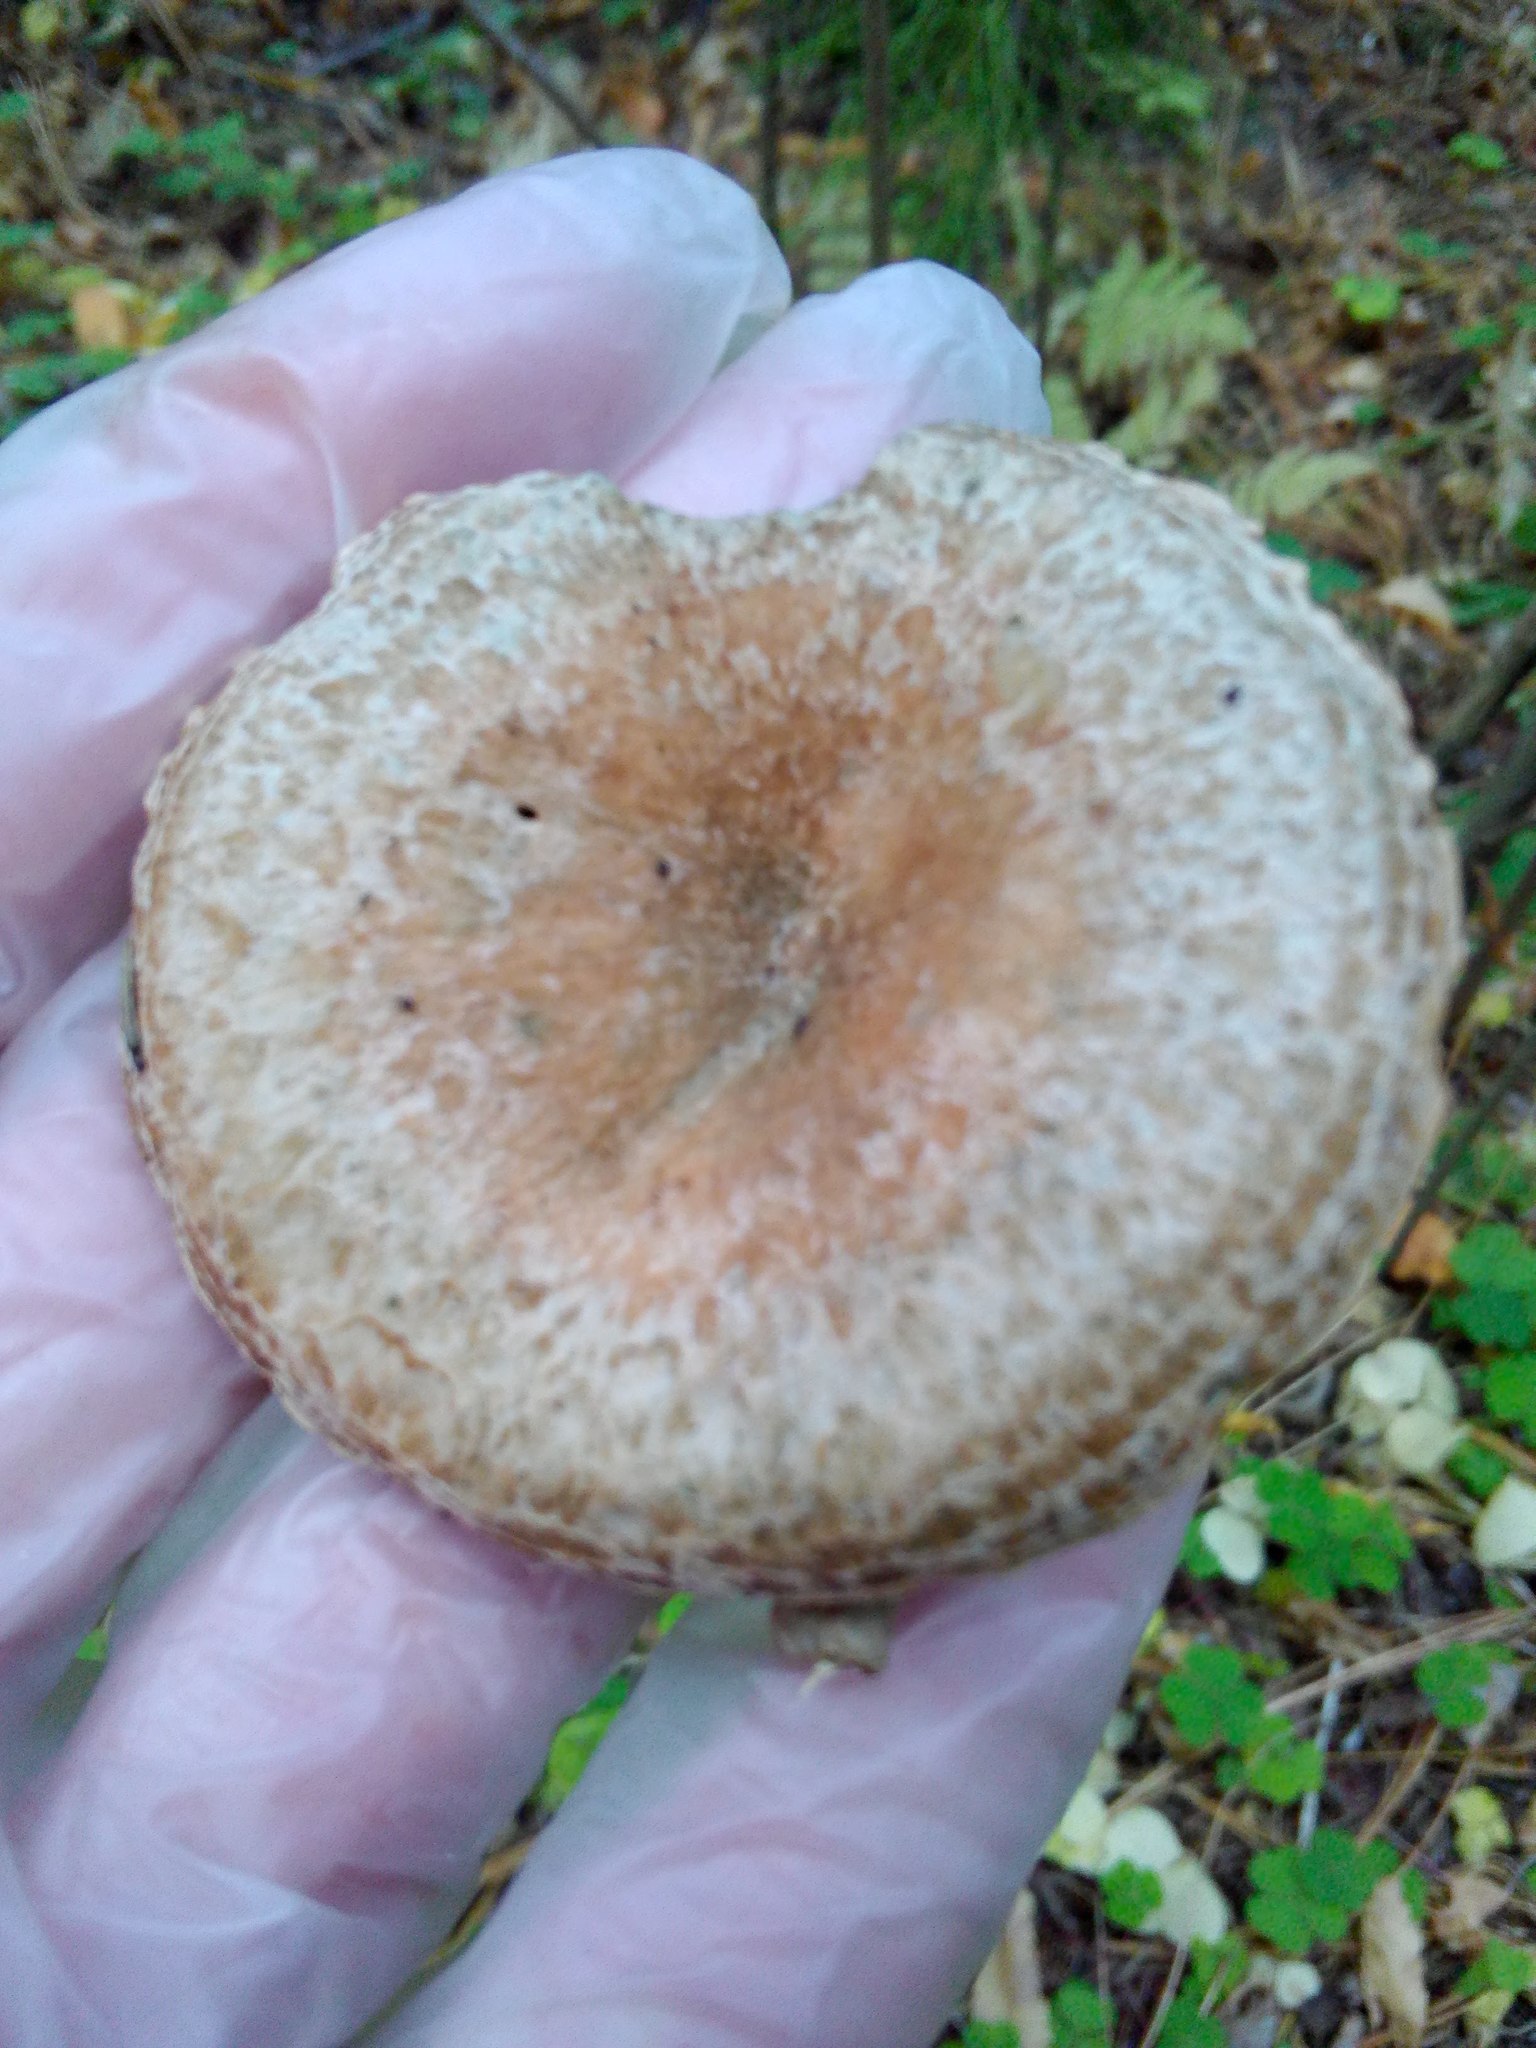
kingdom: Fungi
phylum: Basidiomycota
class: Agaricomycetes
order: Russulales
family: Russulaceae
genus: Lactarius
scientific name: Lactarius deliciosus
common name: Saffron milk-cap
